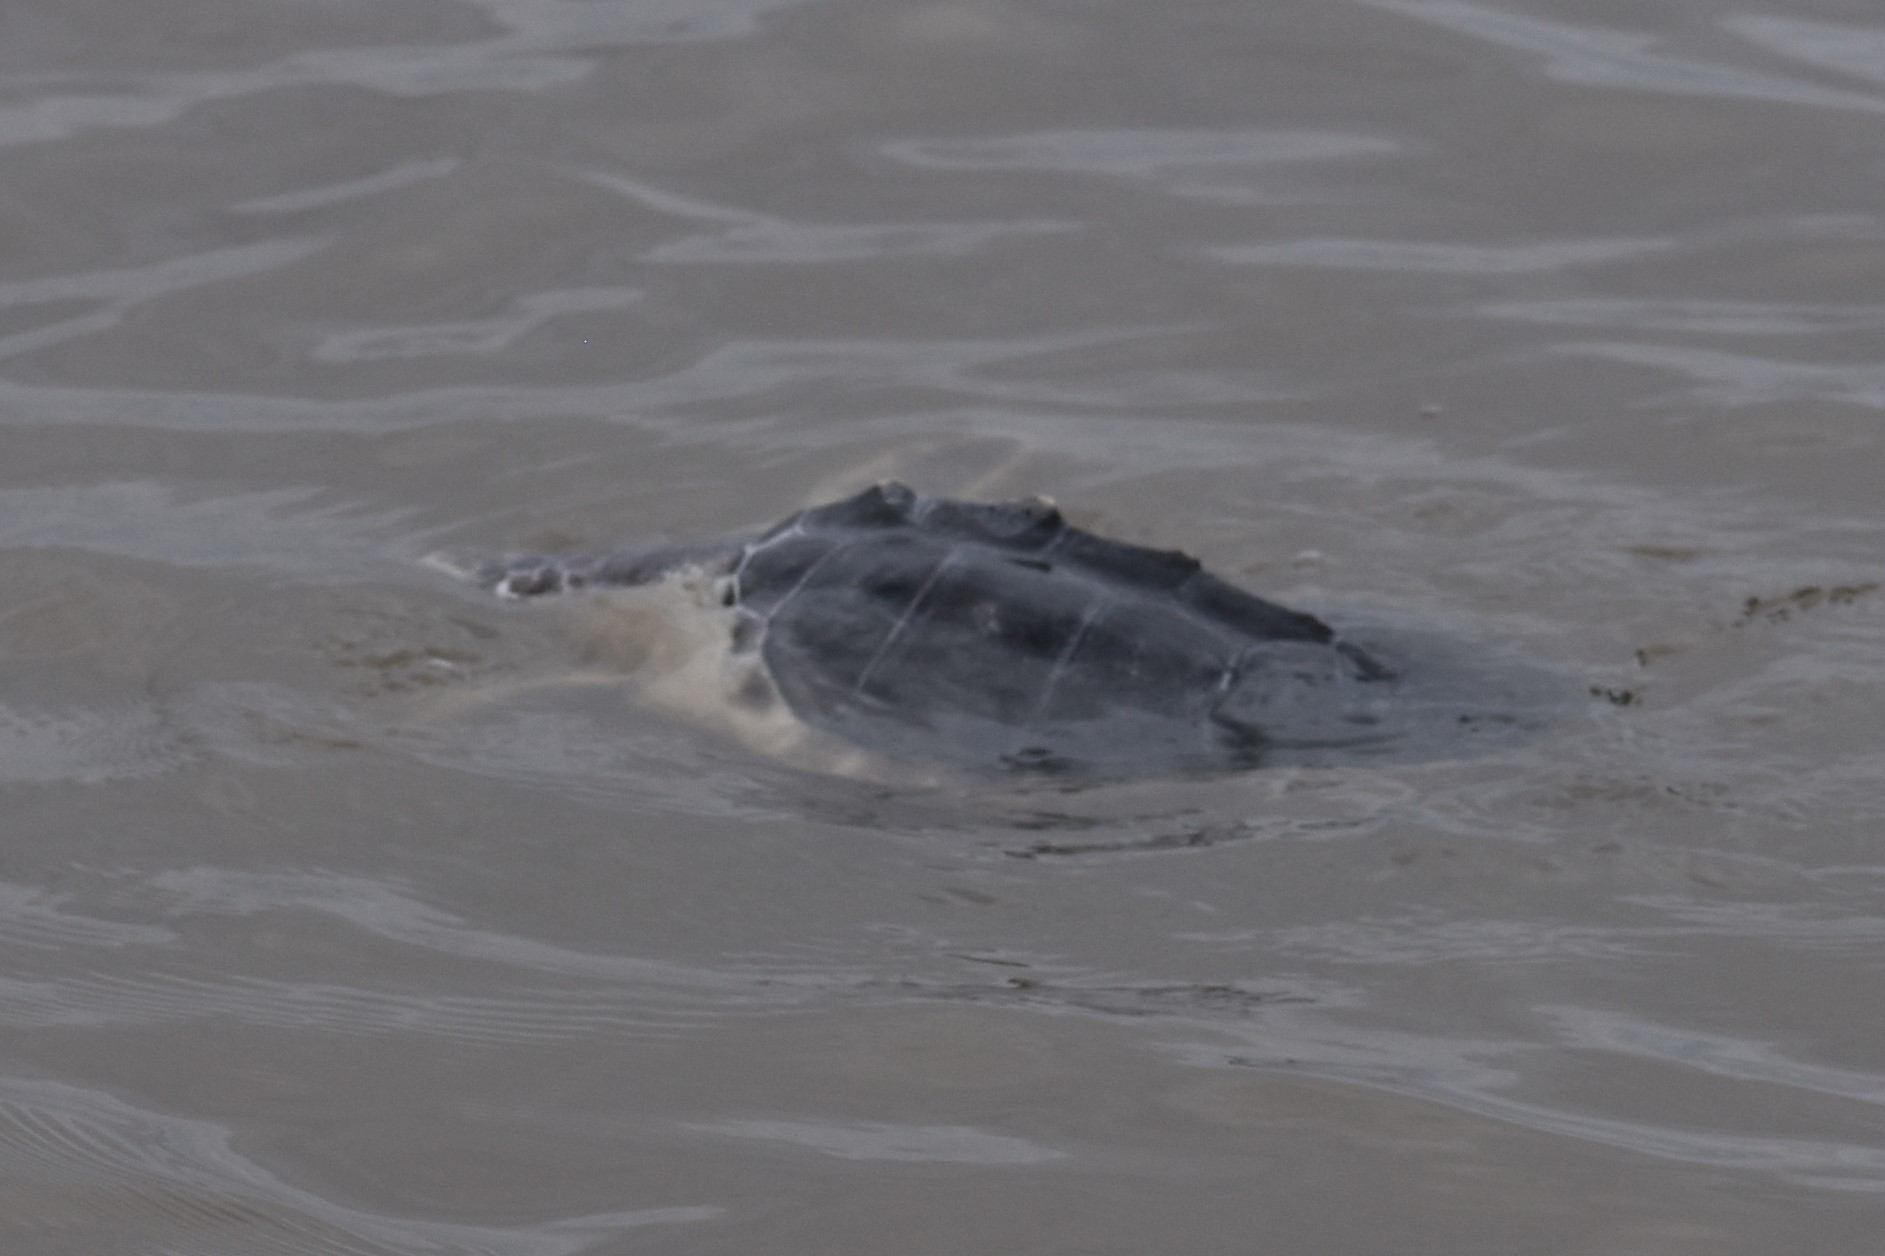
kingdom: Animalia
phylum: Chordata
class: Testudines
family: Cheloniidae
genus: Lepidochelys
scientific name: Lepidochelys kempii
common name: Kemp's ridley turtle
